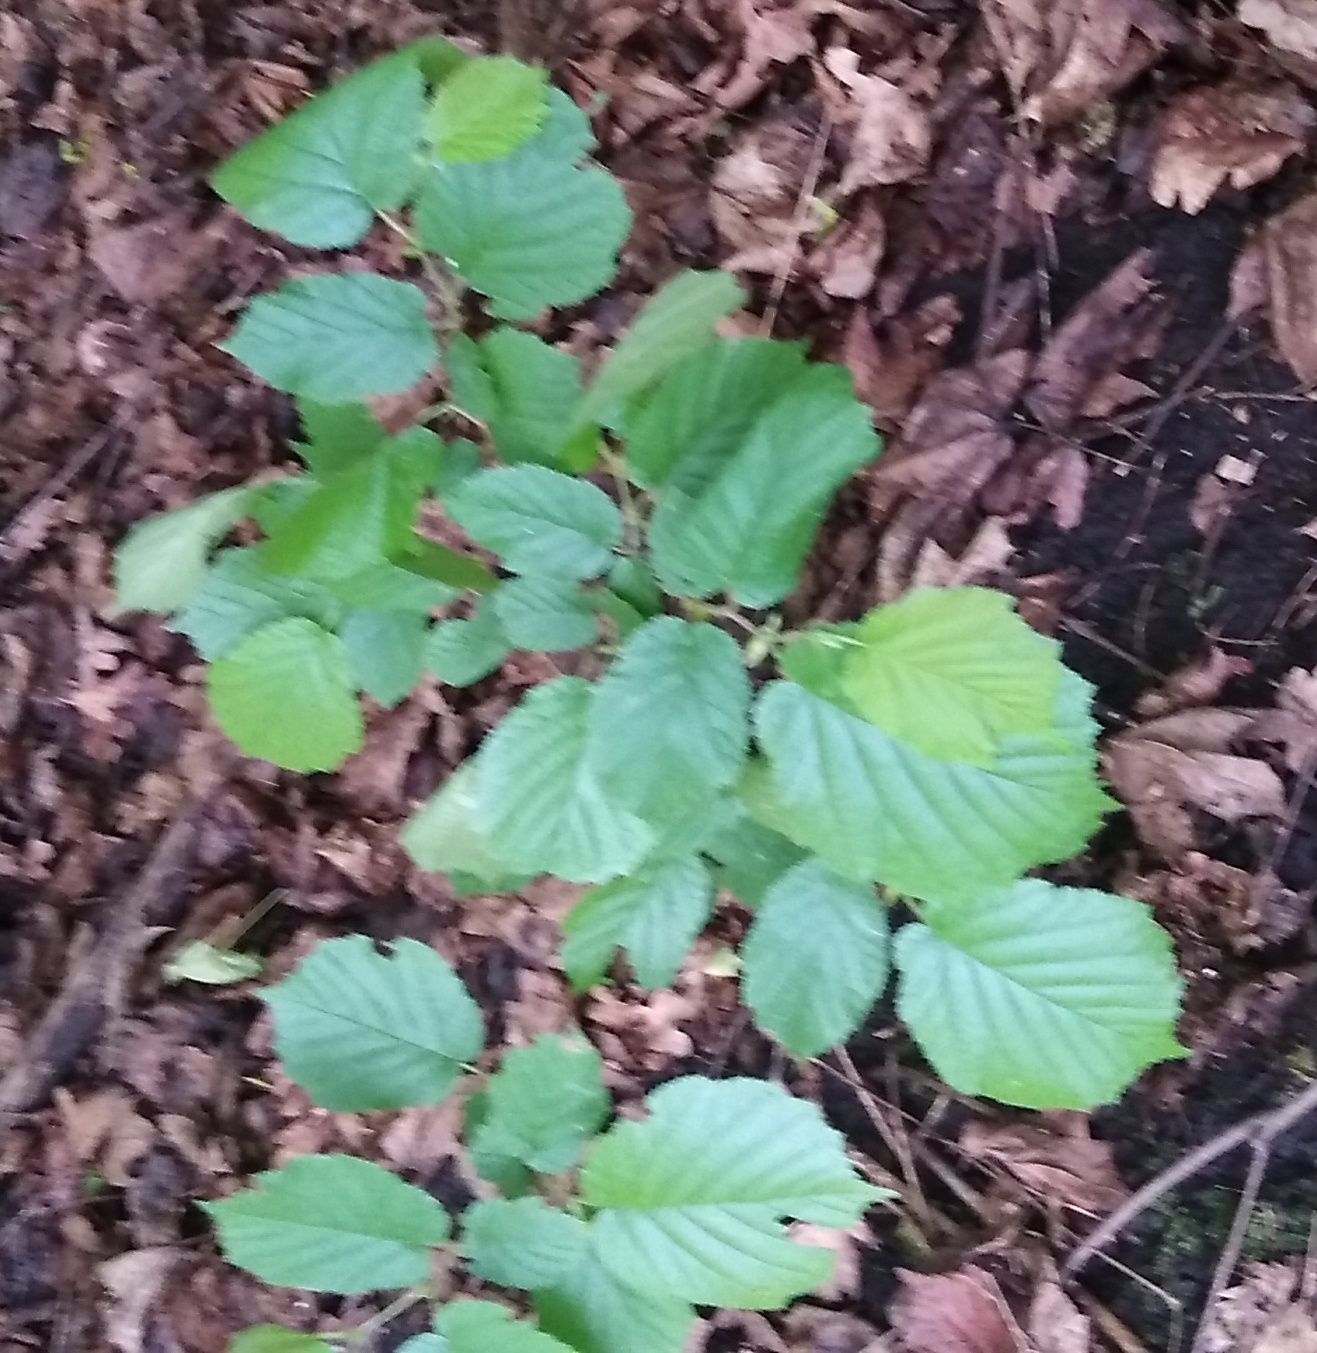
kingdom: Plantae
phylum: Tracheophyta
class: Magnoliopsida
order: Fagales
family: Betulaceae
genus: Corylus
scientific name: Corylus avellana
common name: European hazel
